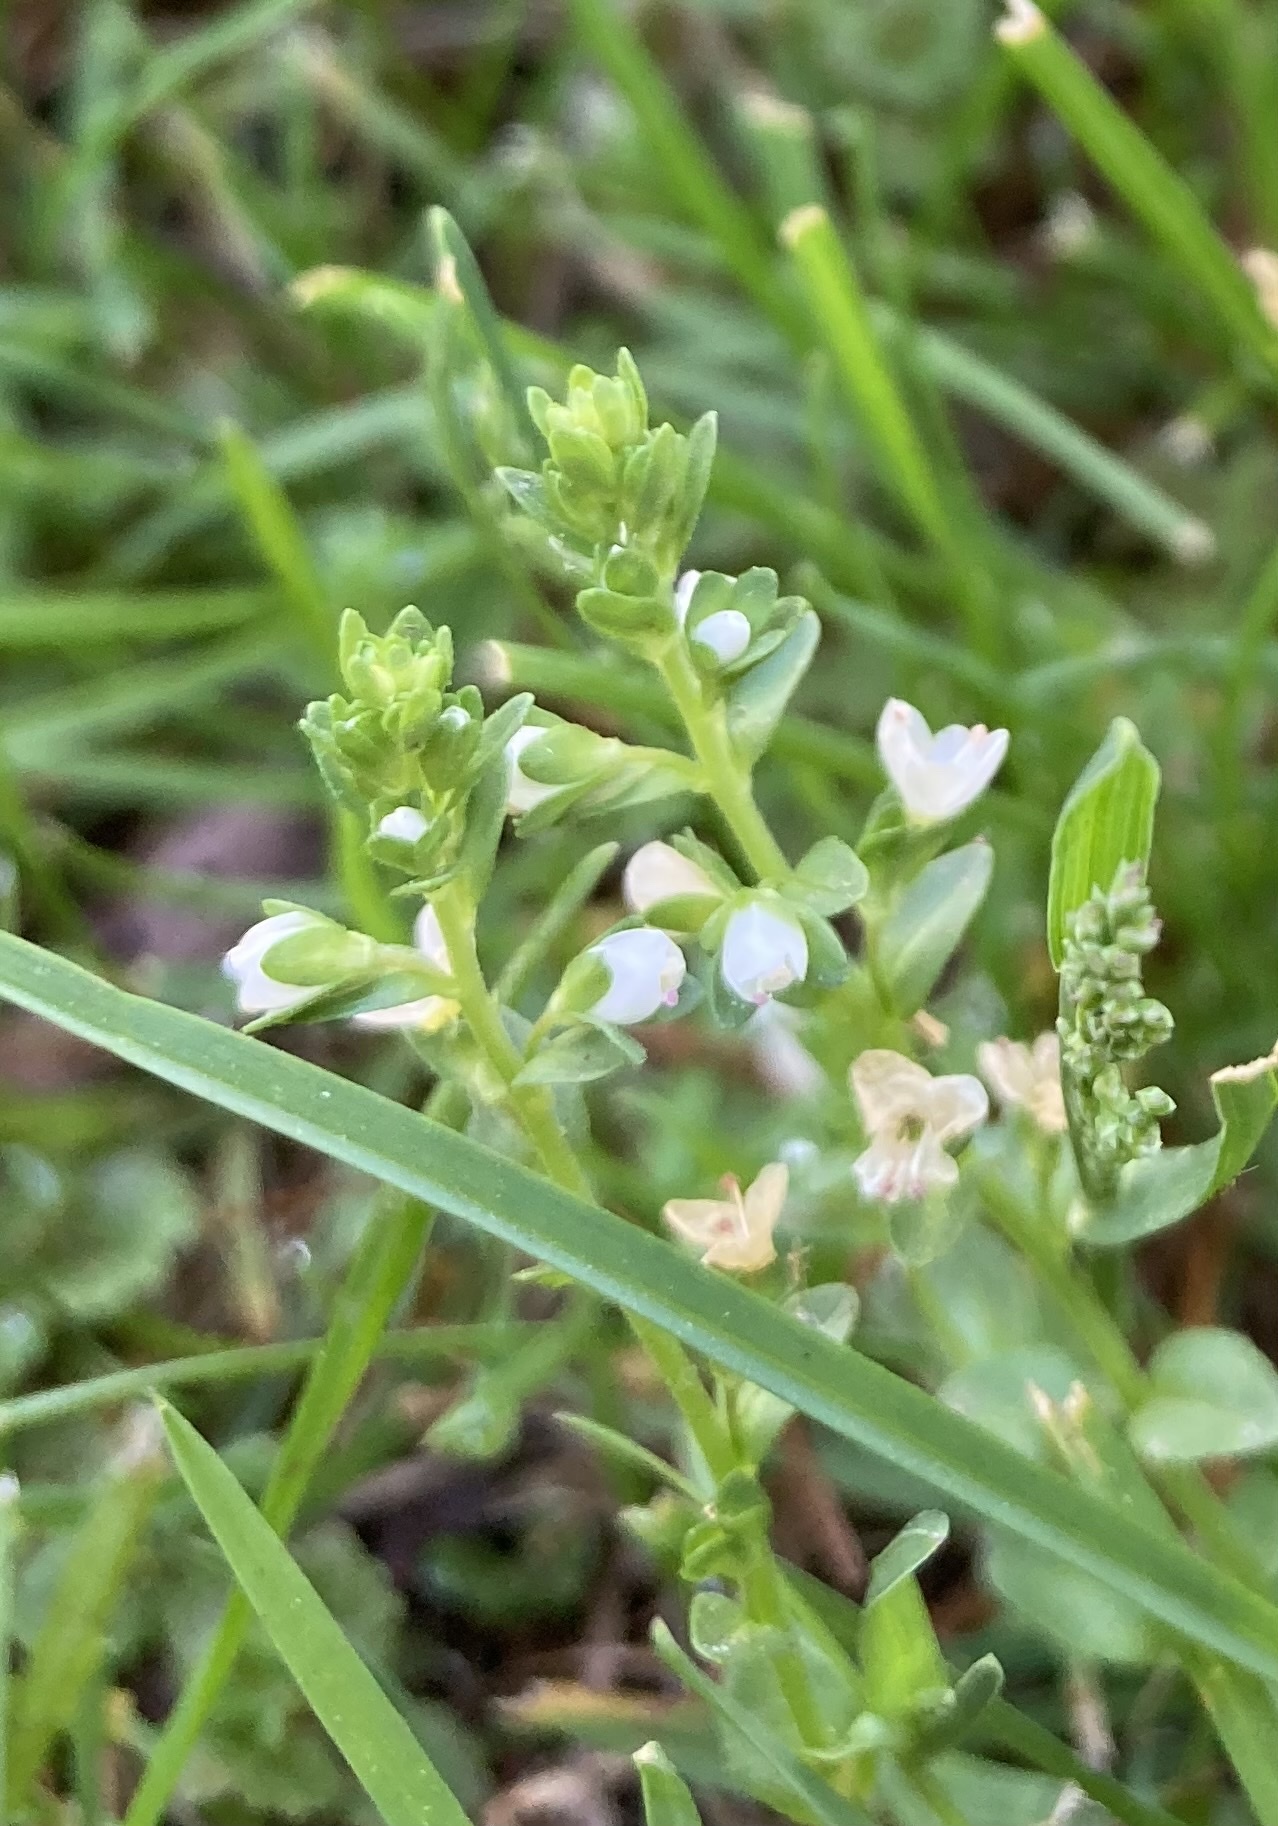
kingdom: Plantae
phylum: Tracheophyta
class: Magnoliopsida
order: Lamiales
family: Plantaginaceae
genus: Veronica
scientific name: Veronica serpyllifolia
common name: Thyme-leaved speedwell
